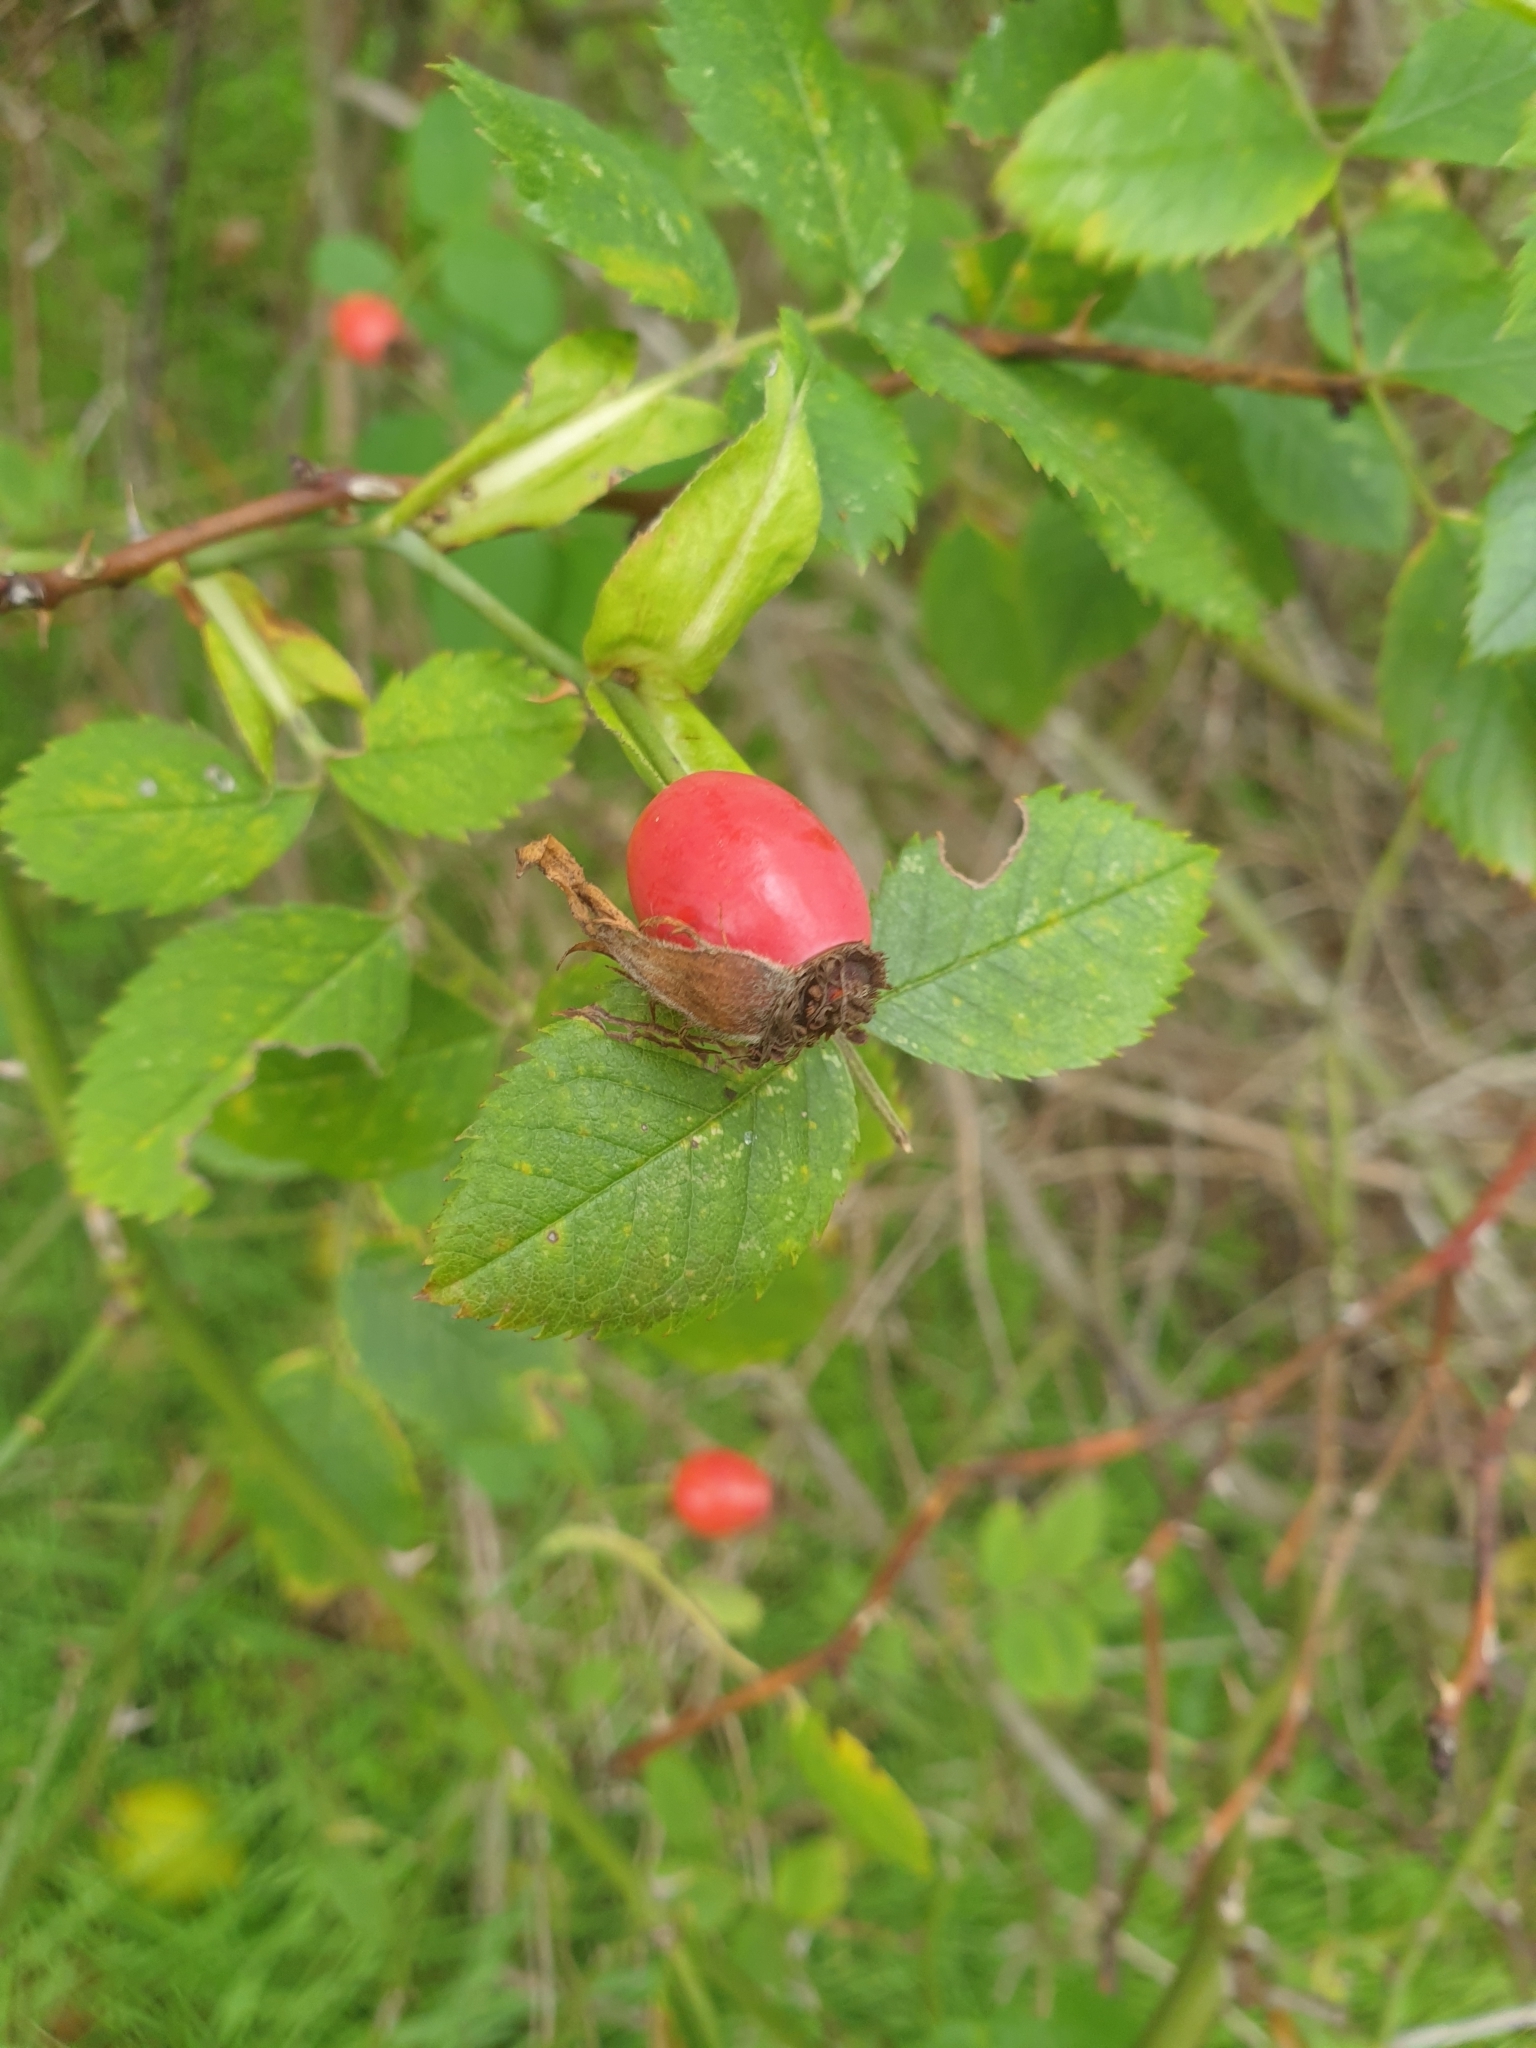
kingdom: Plantae
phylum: Tracheophyta
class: Magnoliopsida
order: Rosales
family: Rosaceae
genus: Rosa
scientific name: Rosa canina
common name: Dog rose
